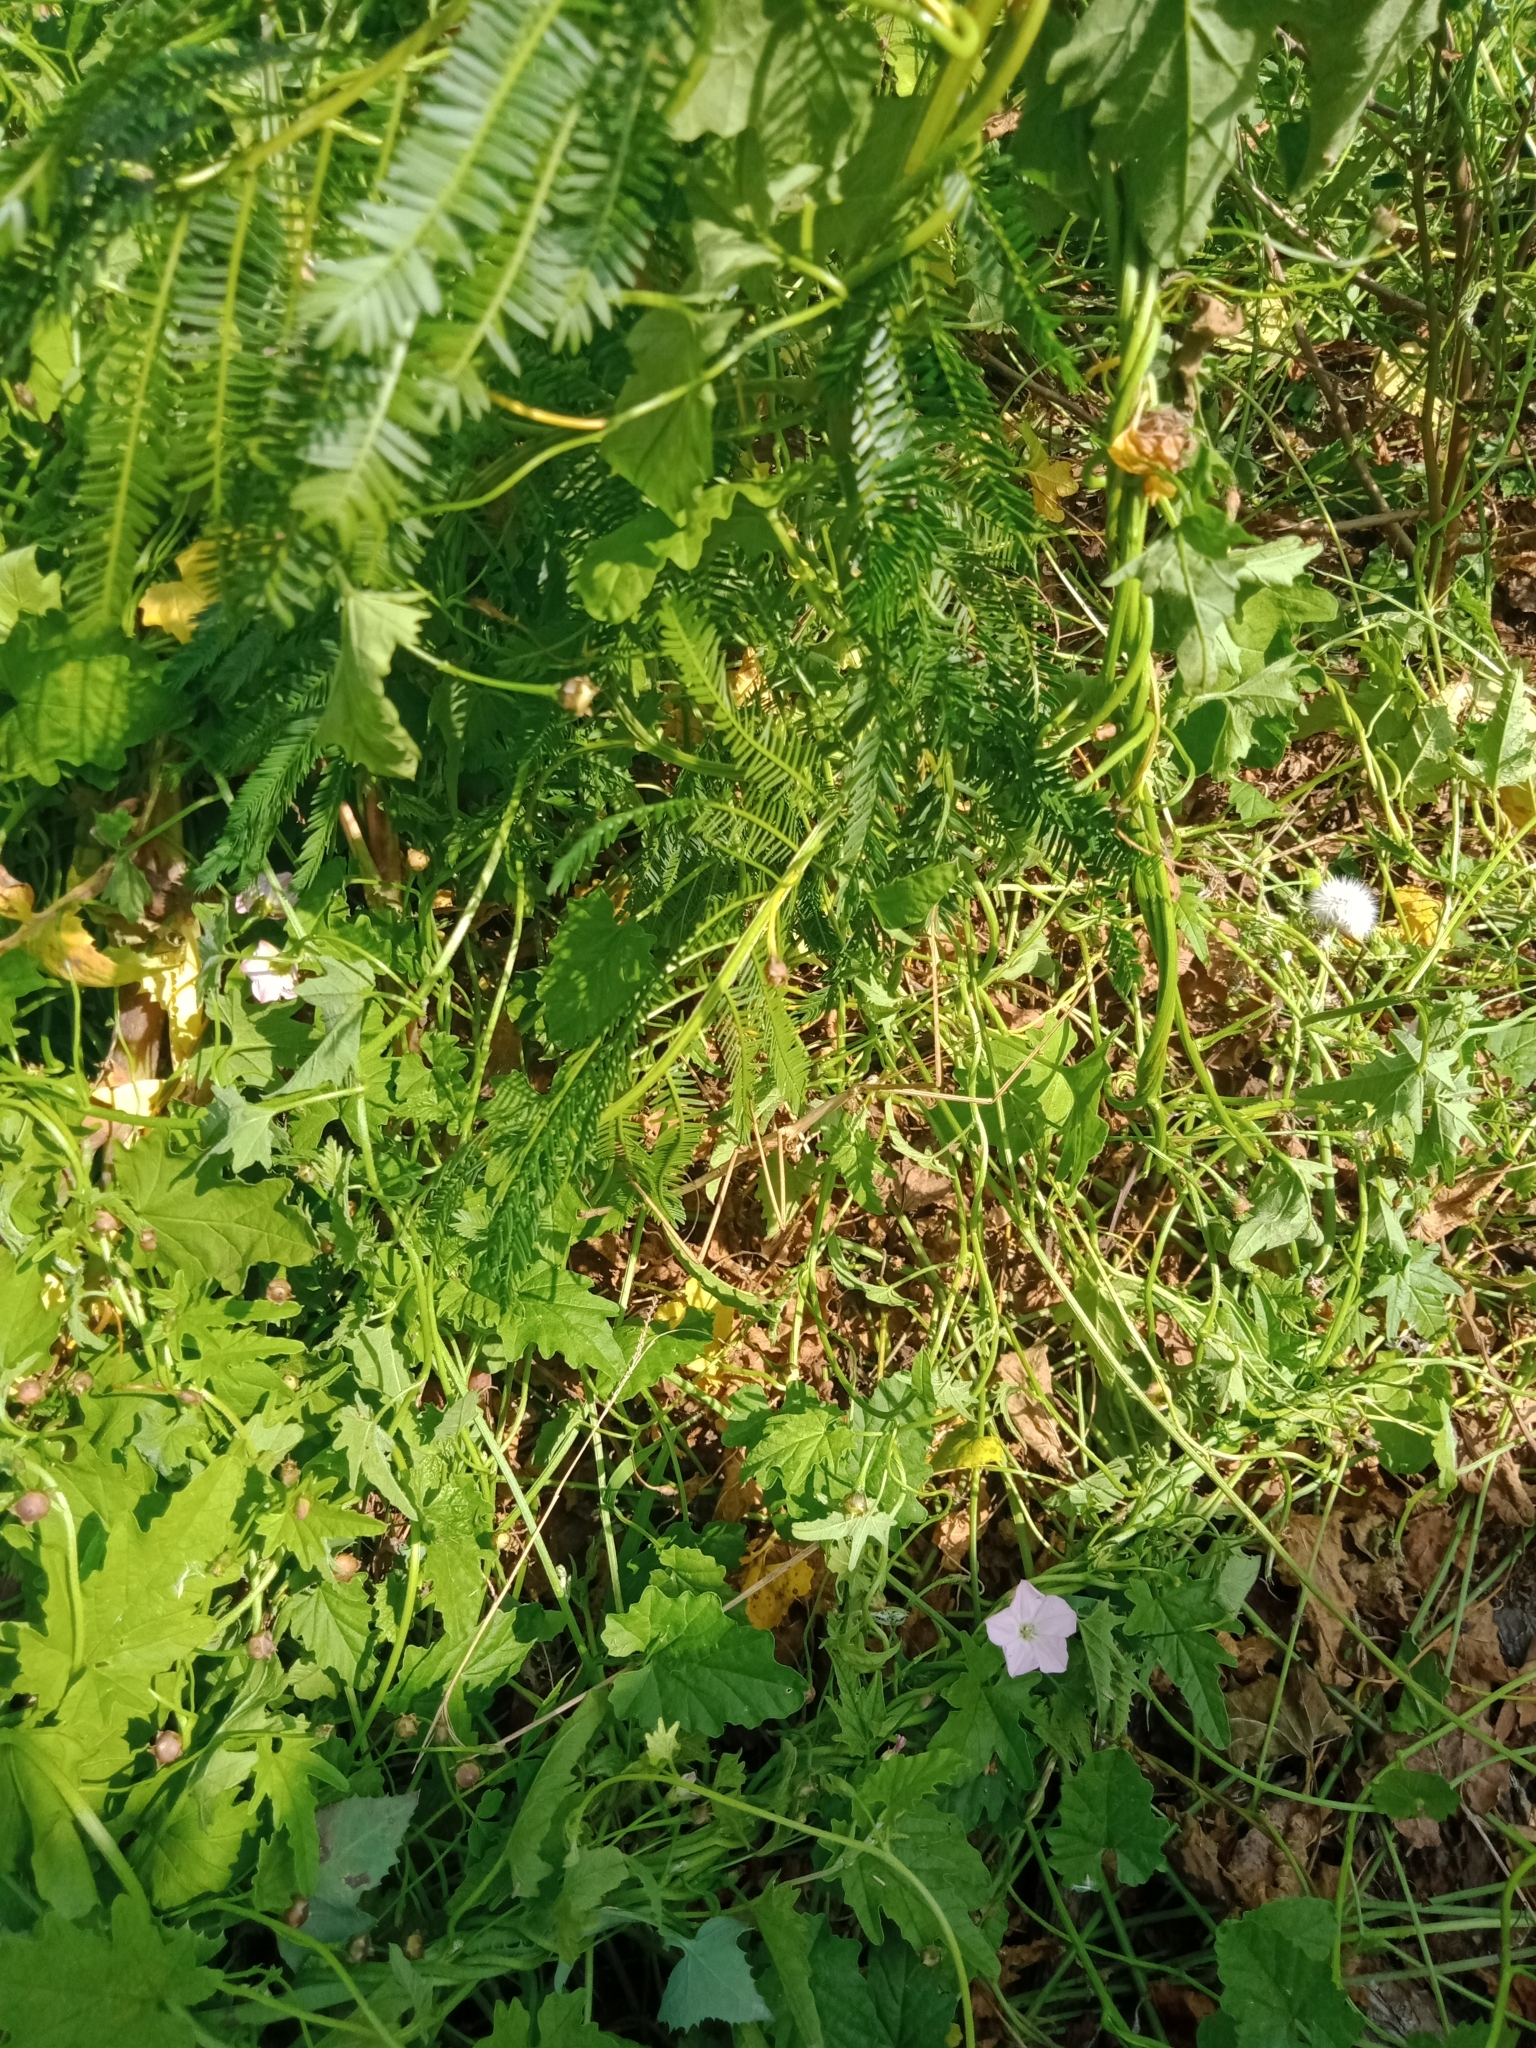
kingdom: Animalia
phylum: Arthropoda
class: Insecta
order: Phasmida
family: Phasmatidae
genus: Ctenomorpha
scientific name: Ctenomorpha marginipennis
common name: Margined-winged stick-insect
